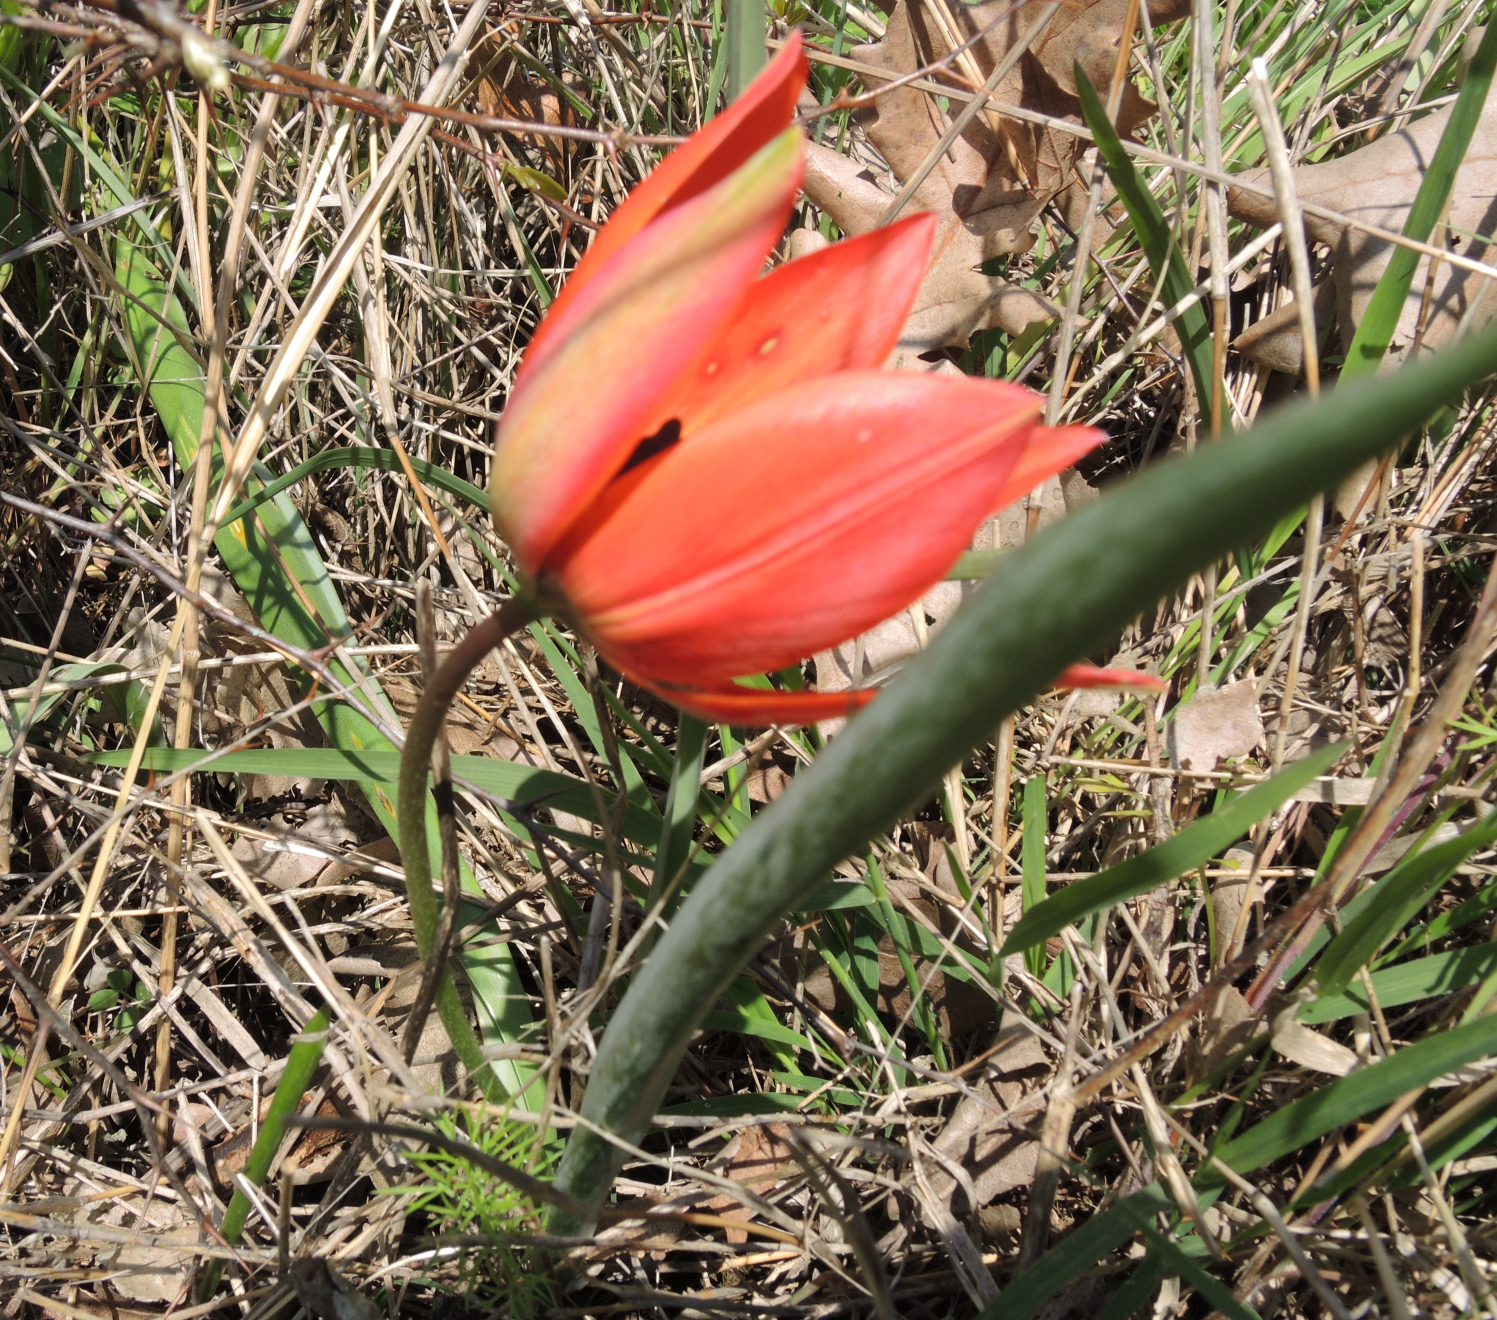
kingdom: Plantae
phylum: Tracheophyta
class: Liliopsida
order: Liliales
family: Liliaceae
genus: Tulipa
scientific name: Tulipa orphanidea
